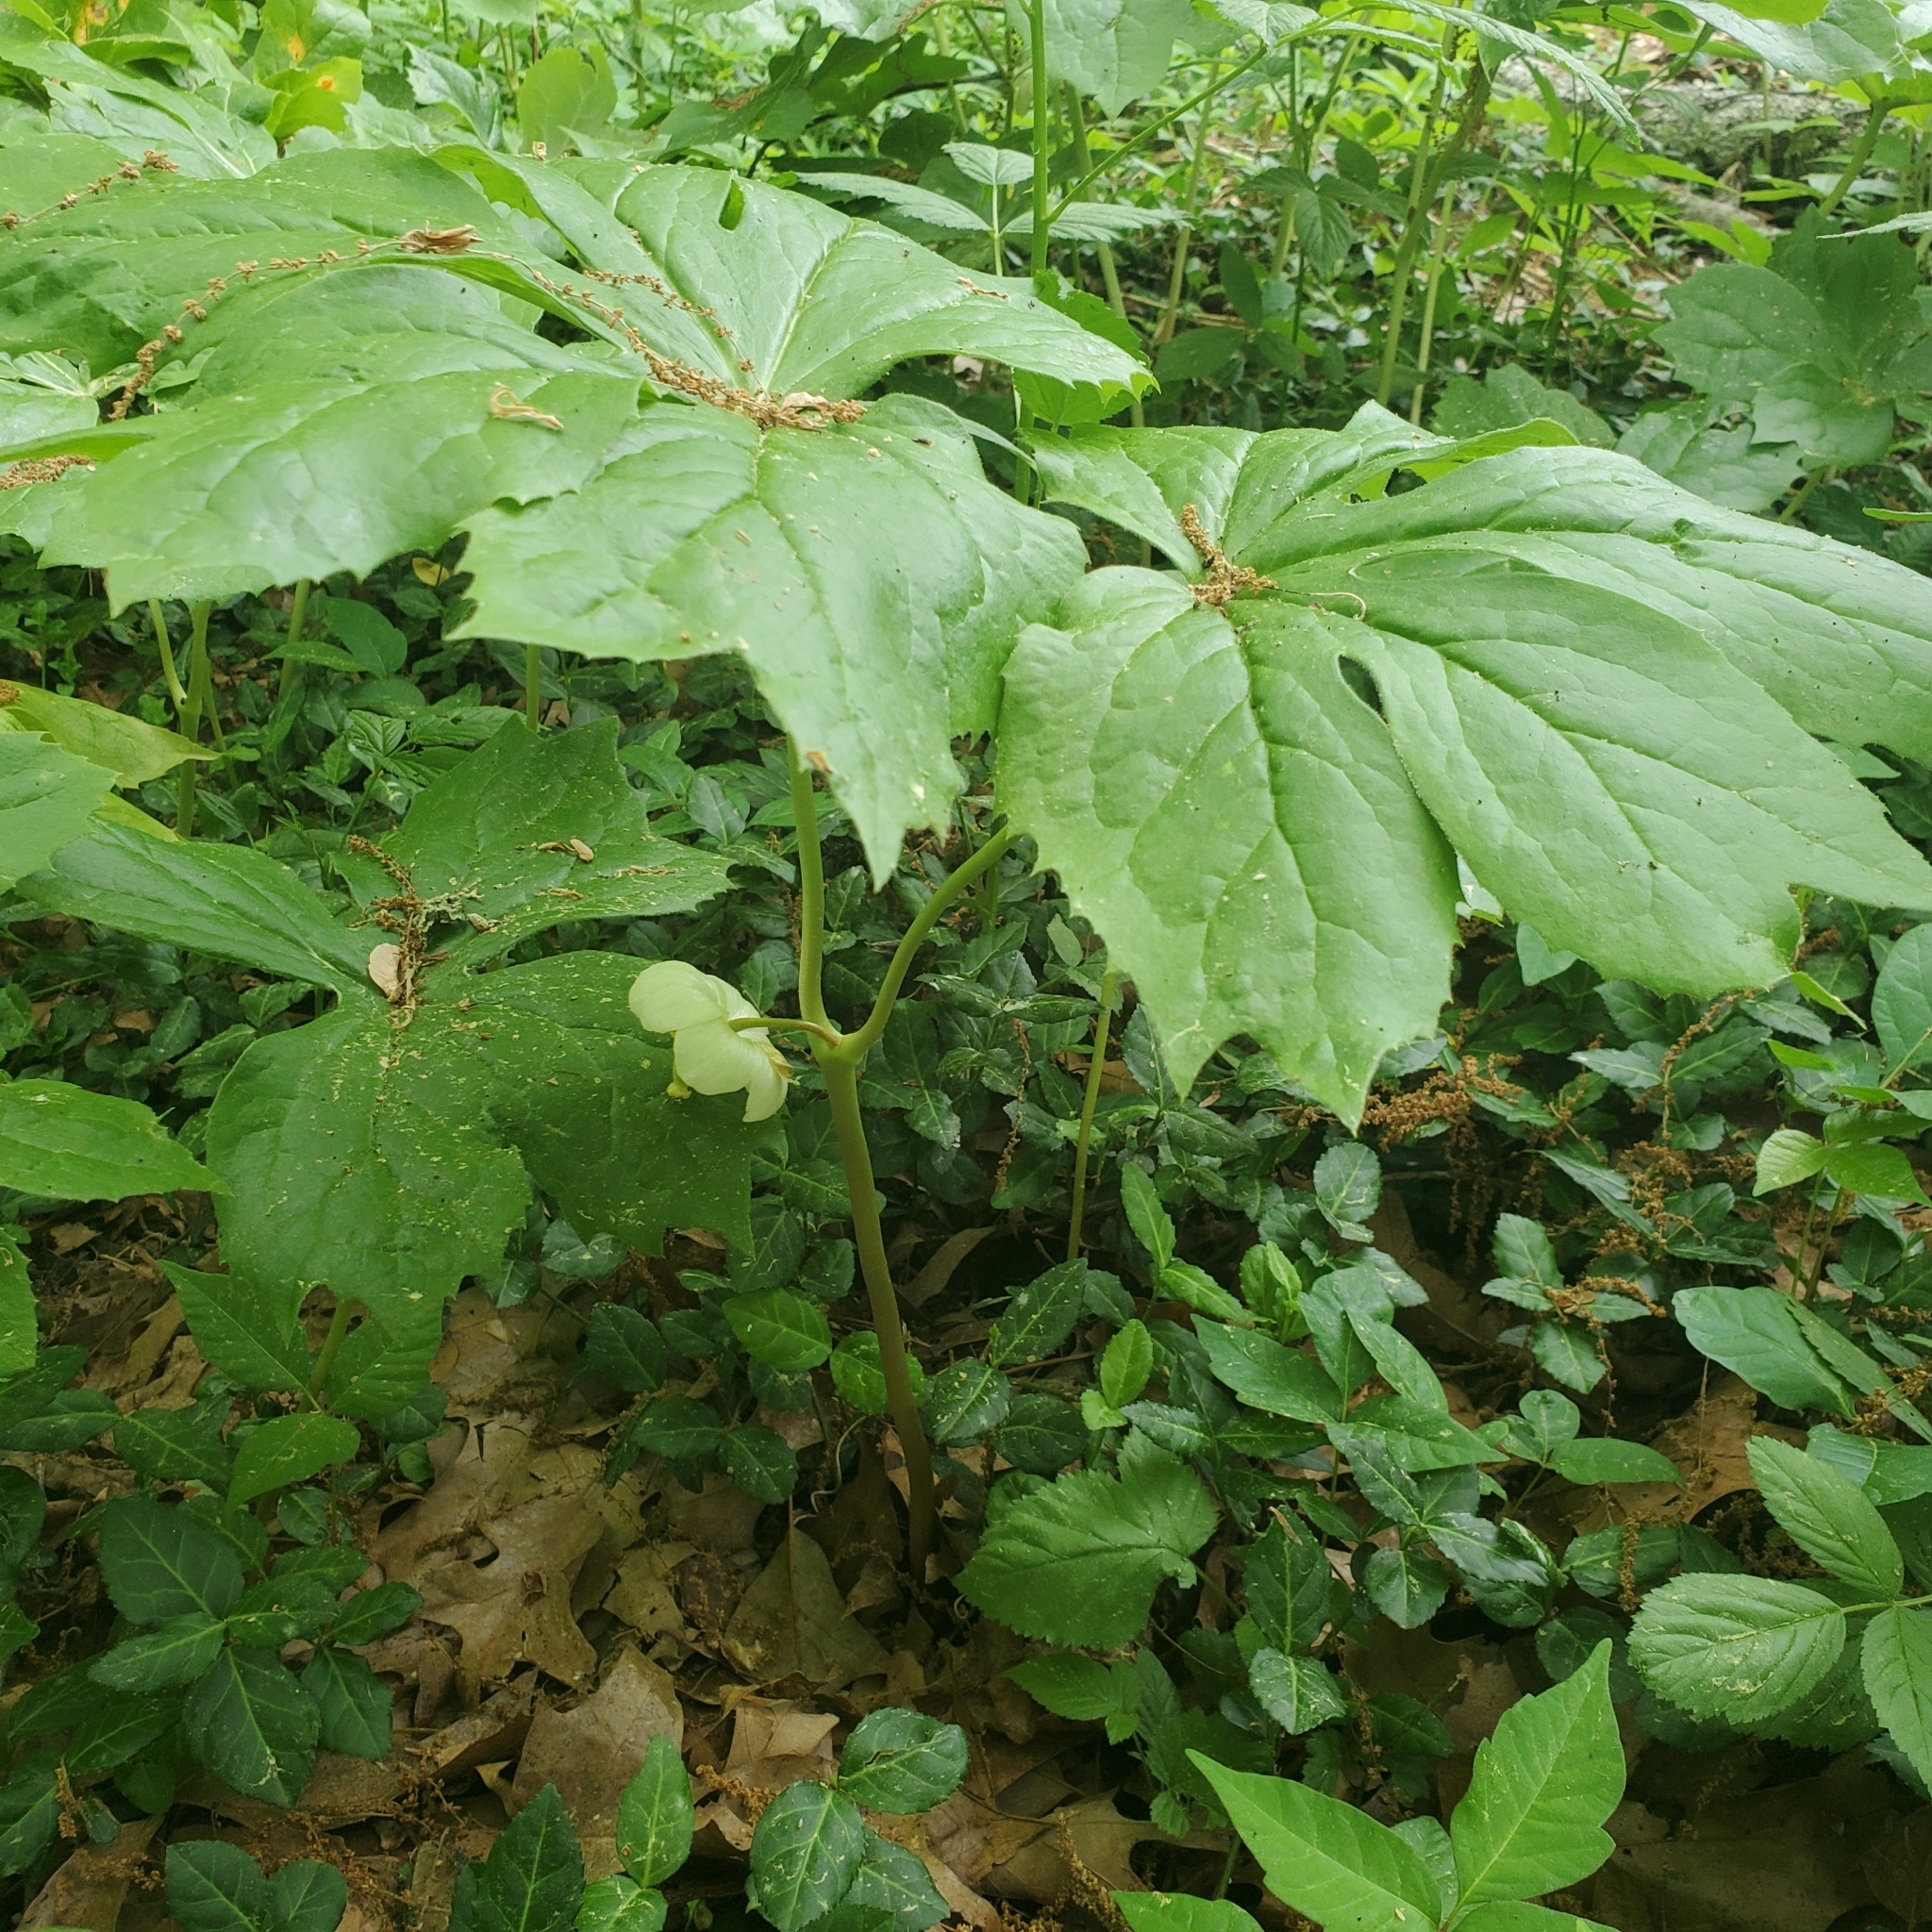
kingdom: Plantae
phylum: Tracheophyta
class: Magnoliopsida
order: Ranunculales
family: Berberidaceae
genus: Podophyllum
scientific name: Podophyllum peltatum
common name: Wild mandrake
